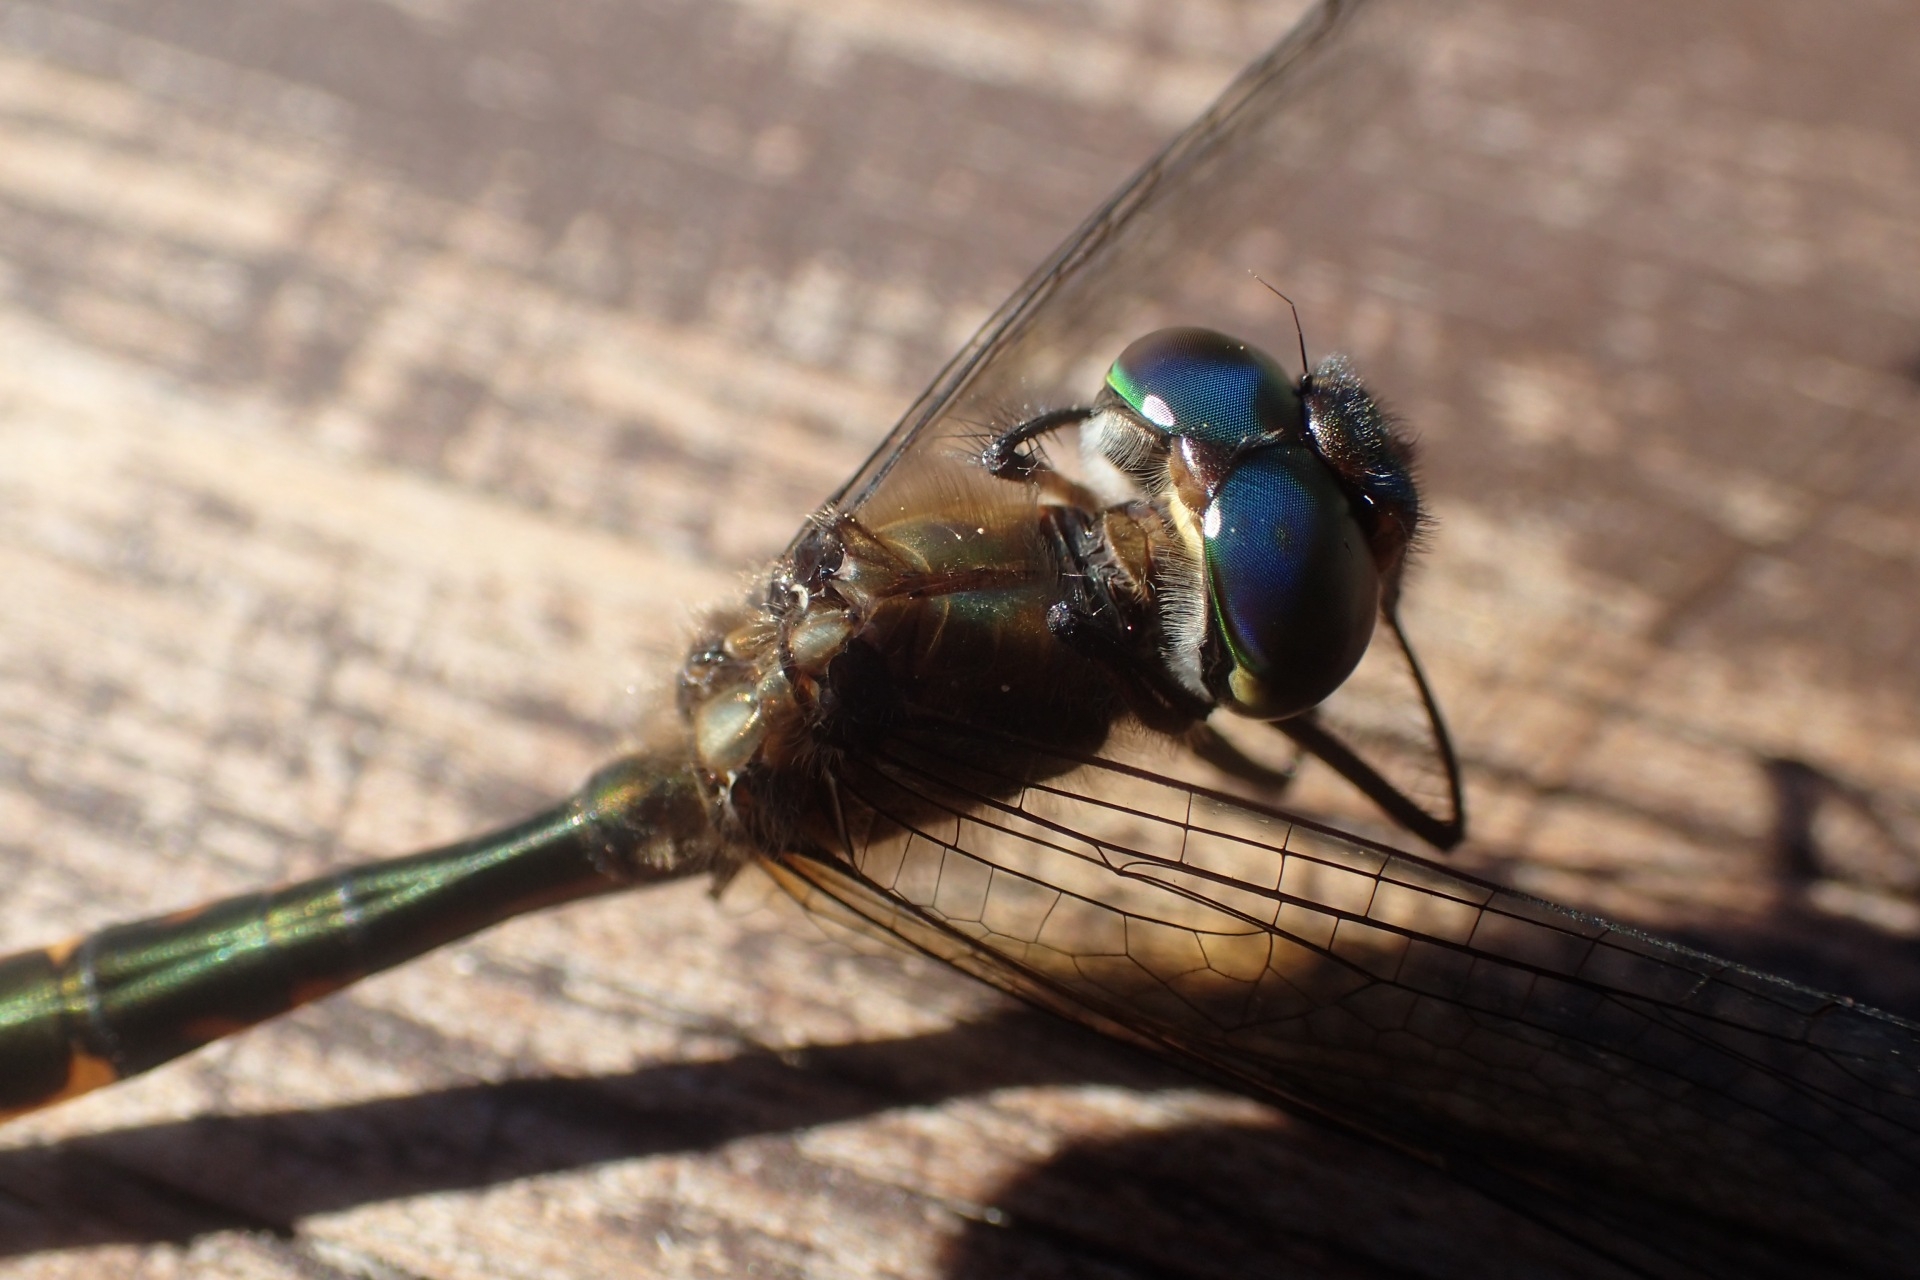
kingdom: Animalia
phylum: Arthropoda
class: Insecta
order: Odonata
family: Corduliidae
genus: Hemicordulia
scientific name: Hemicordulia armstrongi
